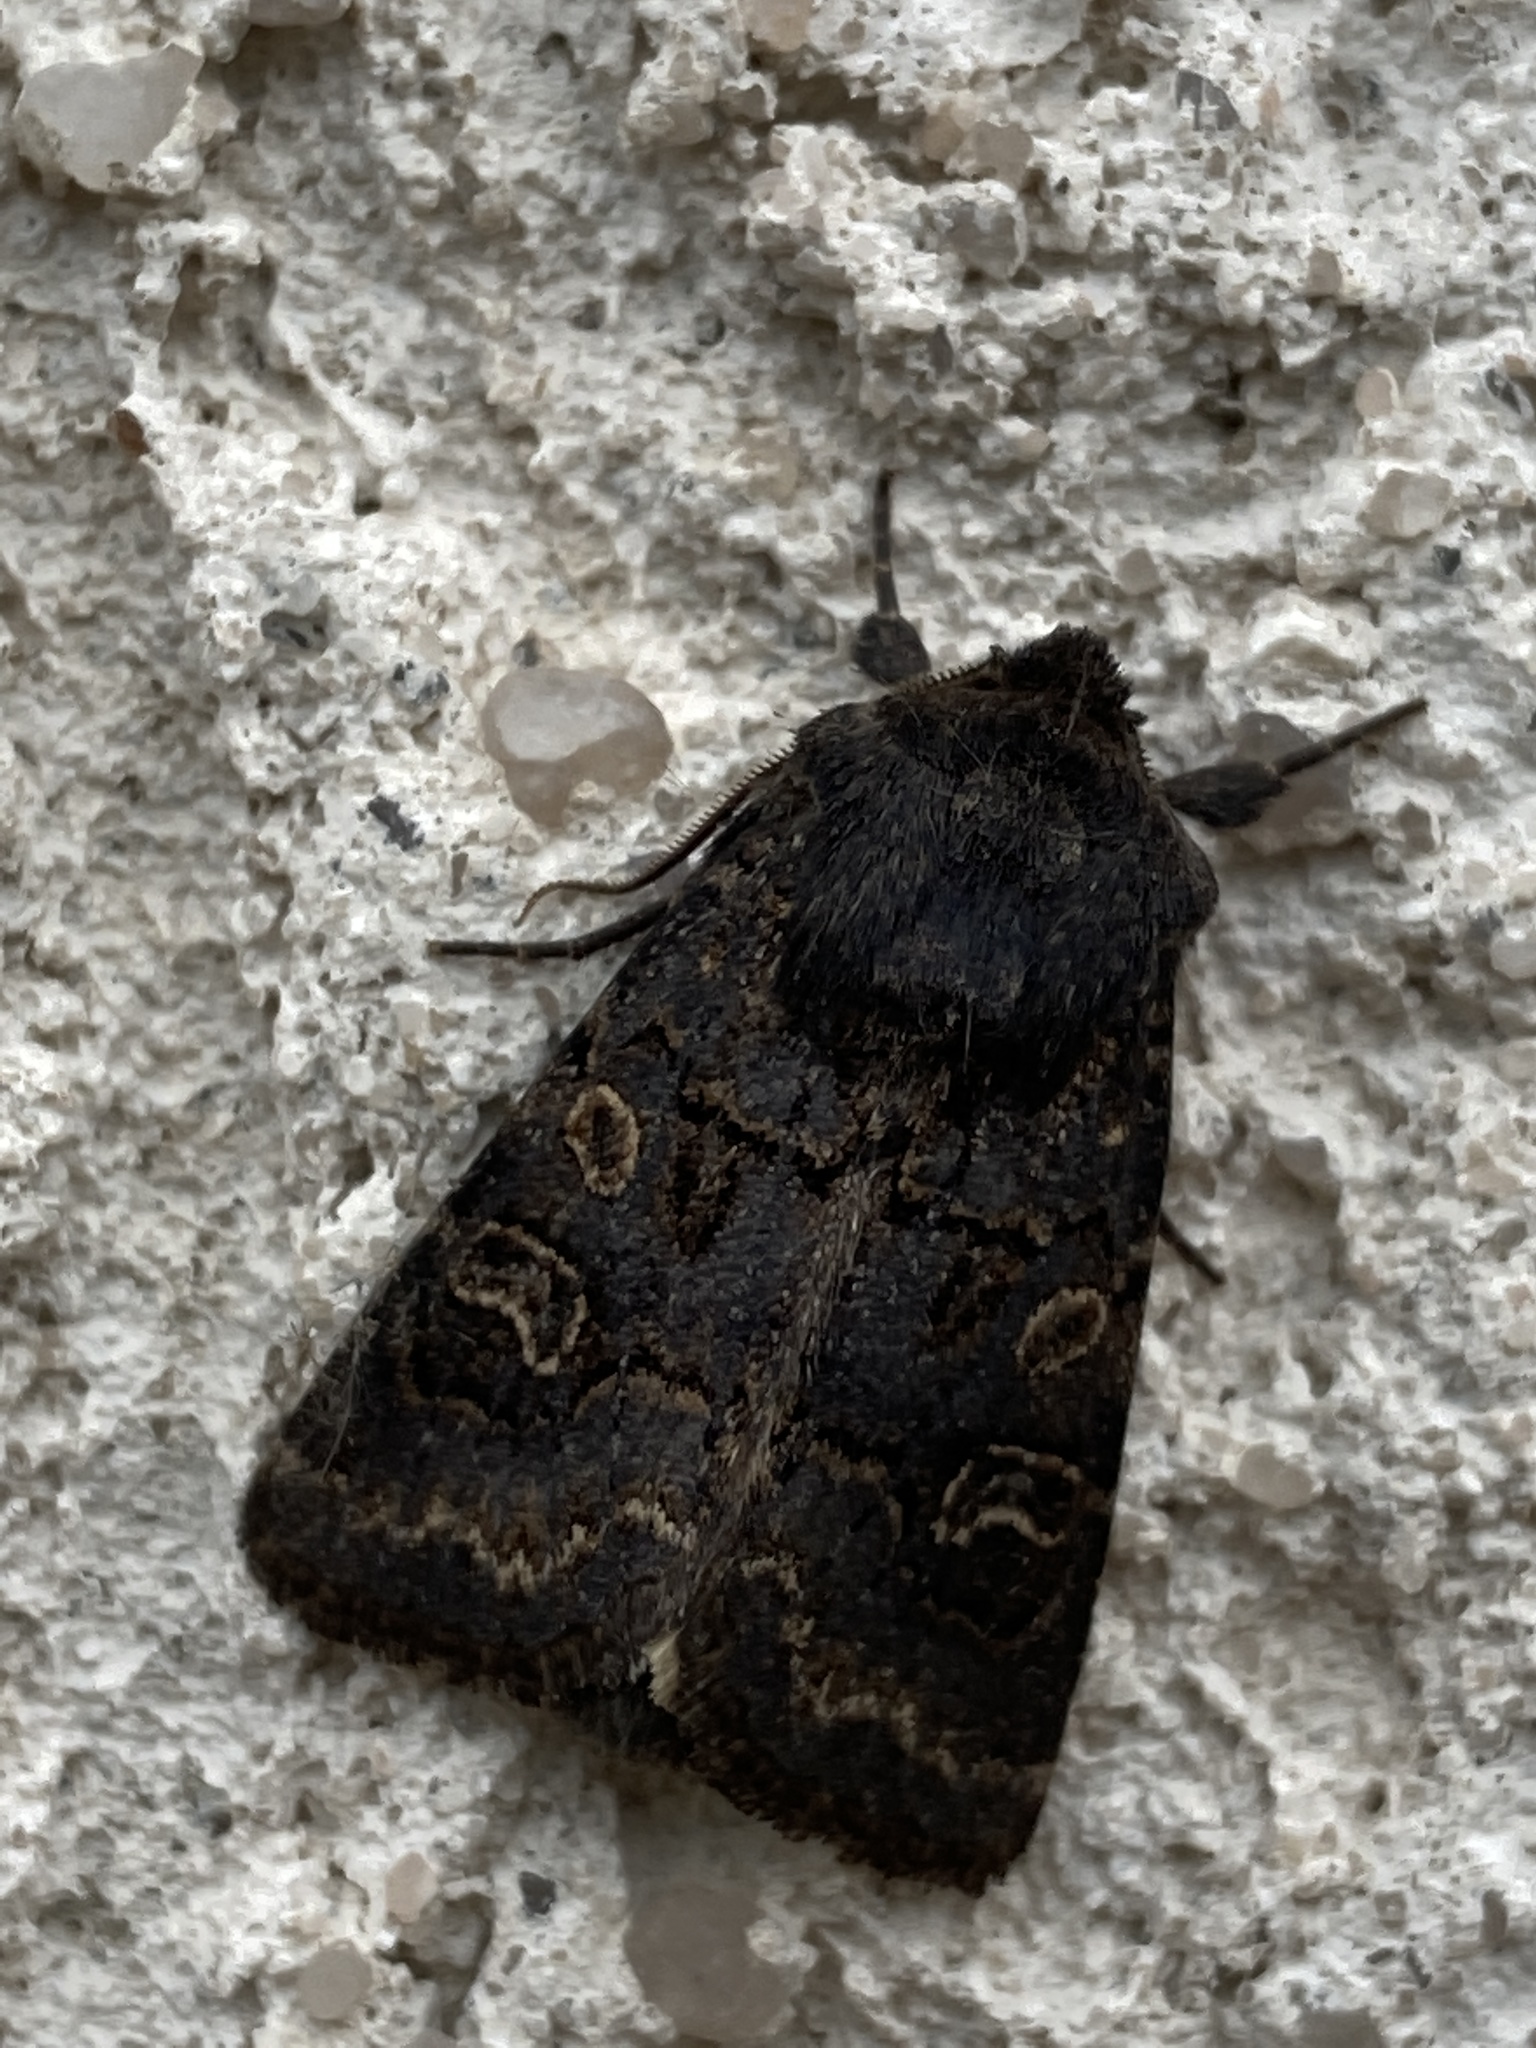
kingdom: Animalia
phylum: Arthropoda
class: Insecta
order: Lepidoptera
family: Noctuidae
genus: Tholera
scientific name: Tholera cespitis
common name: Hedge rustic
